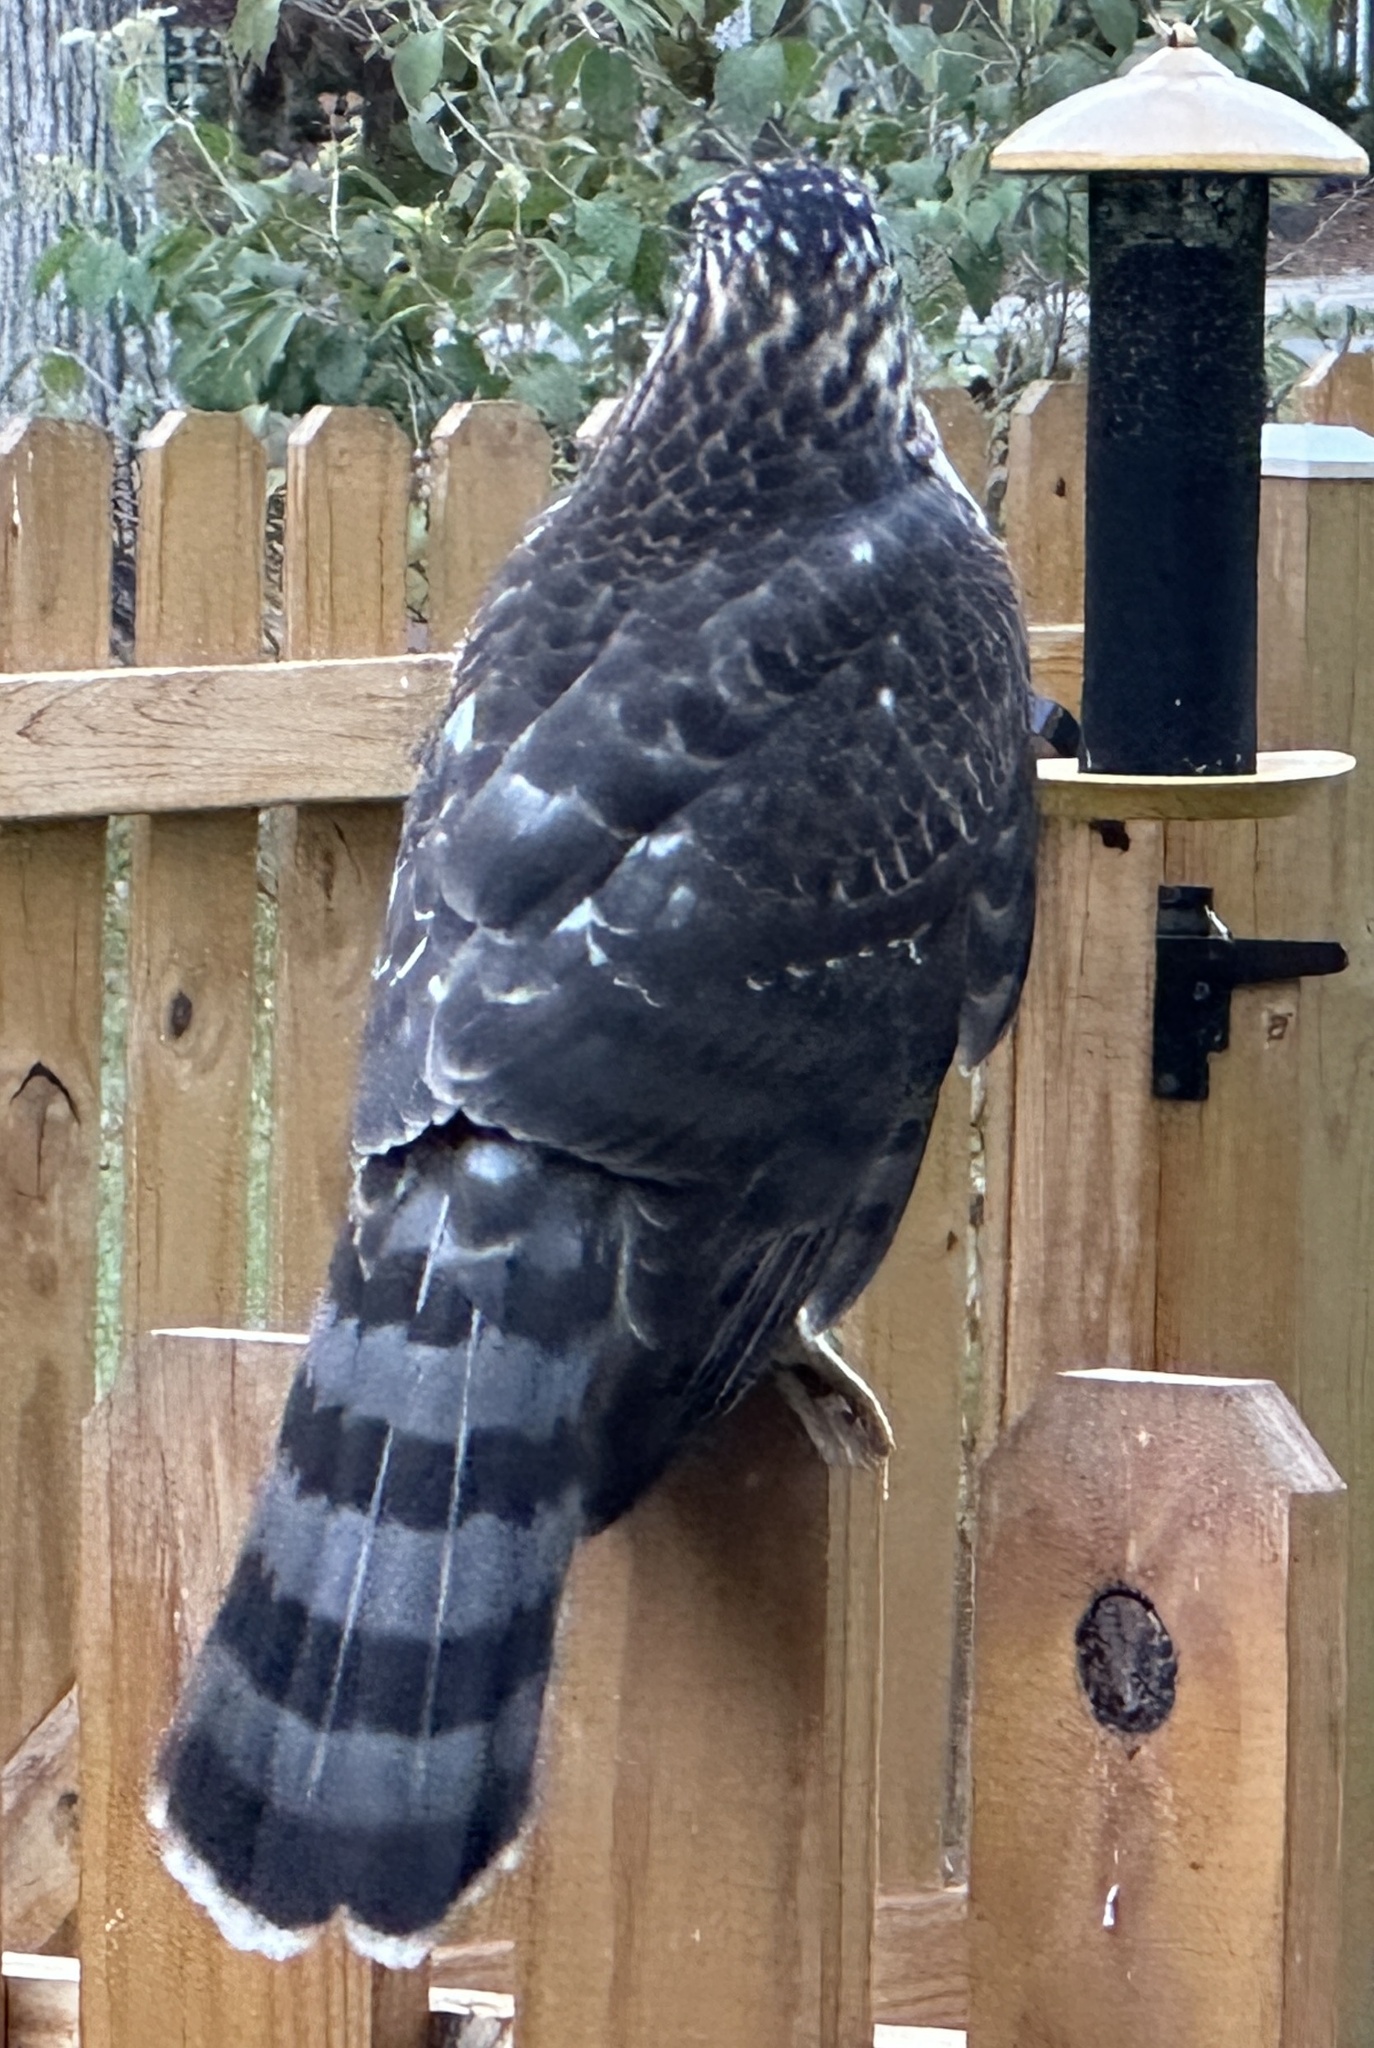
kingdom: Animalia
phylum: Chordata
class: Aves
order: Accipitriformes
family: Accipitridae
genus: Accipiter
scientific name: Accipiter cooperii
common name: Cooper's hawk
